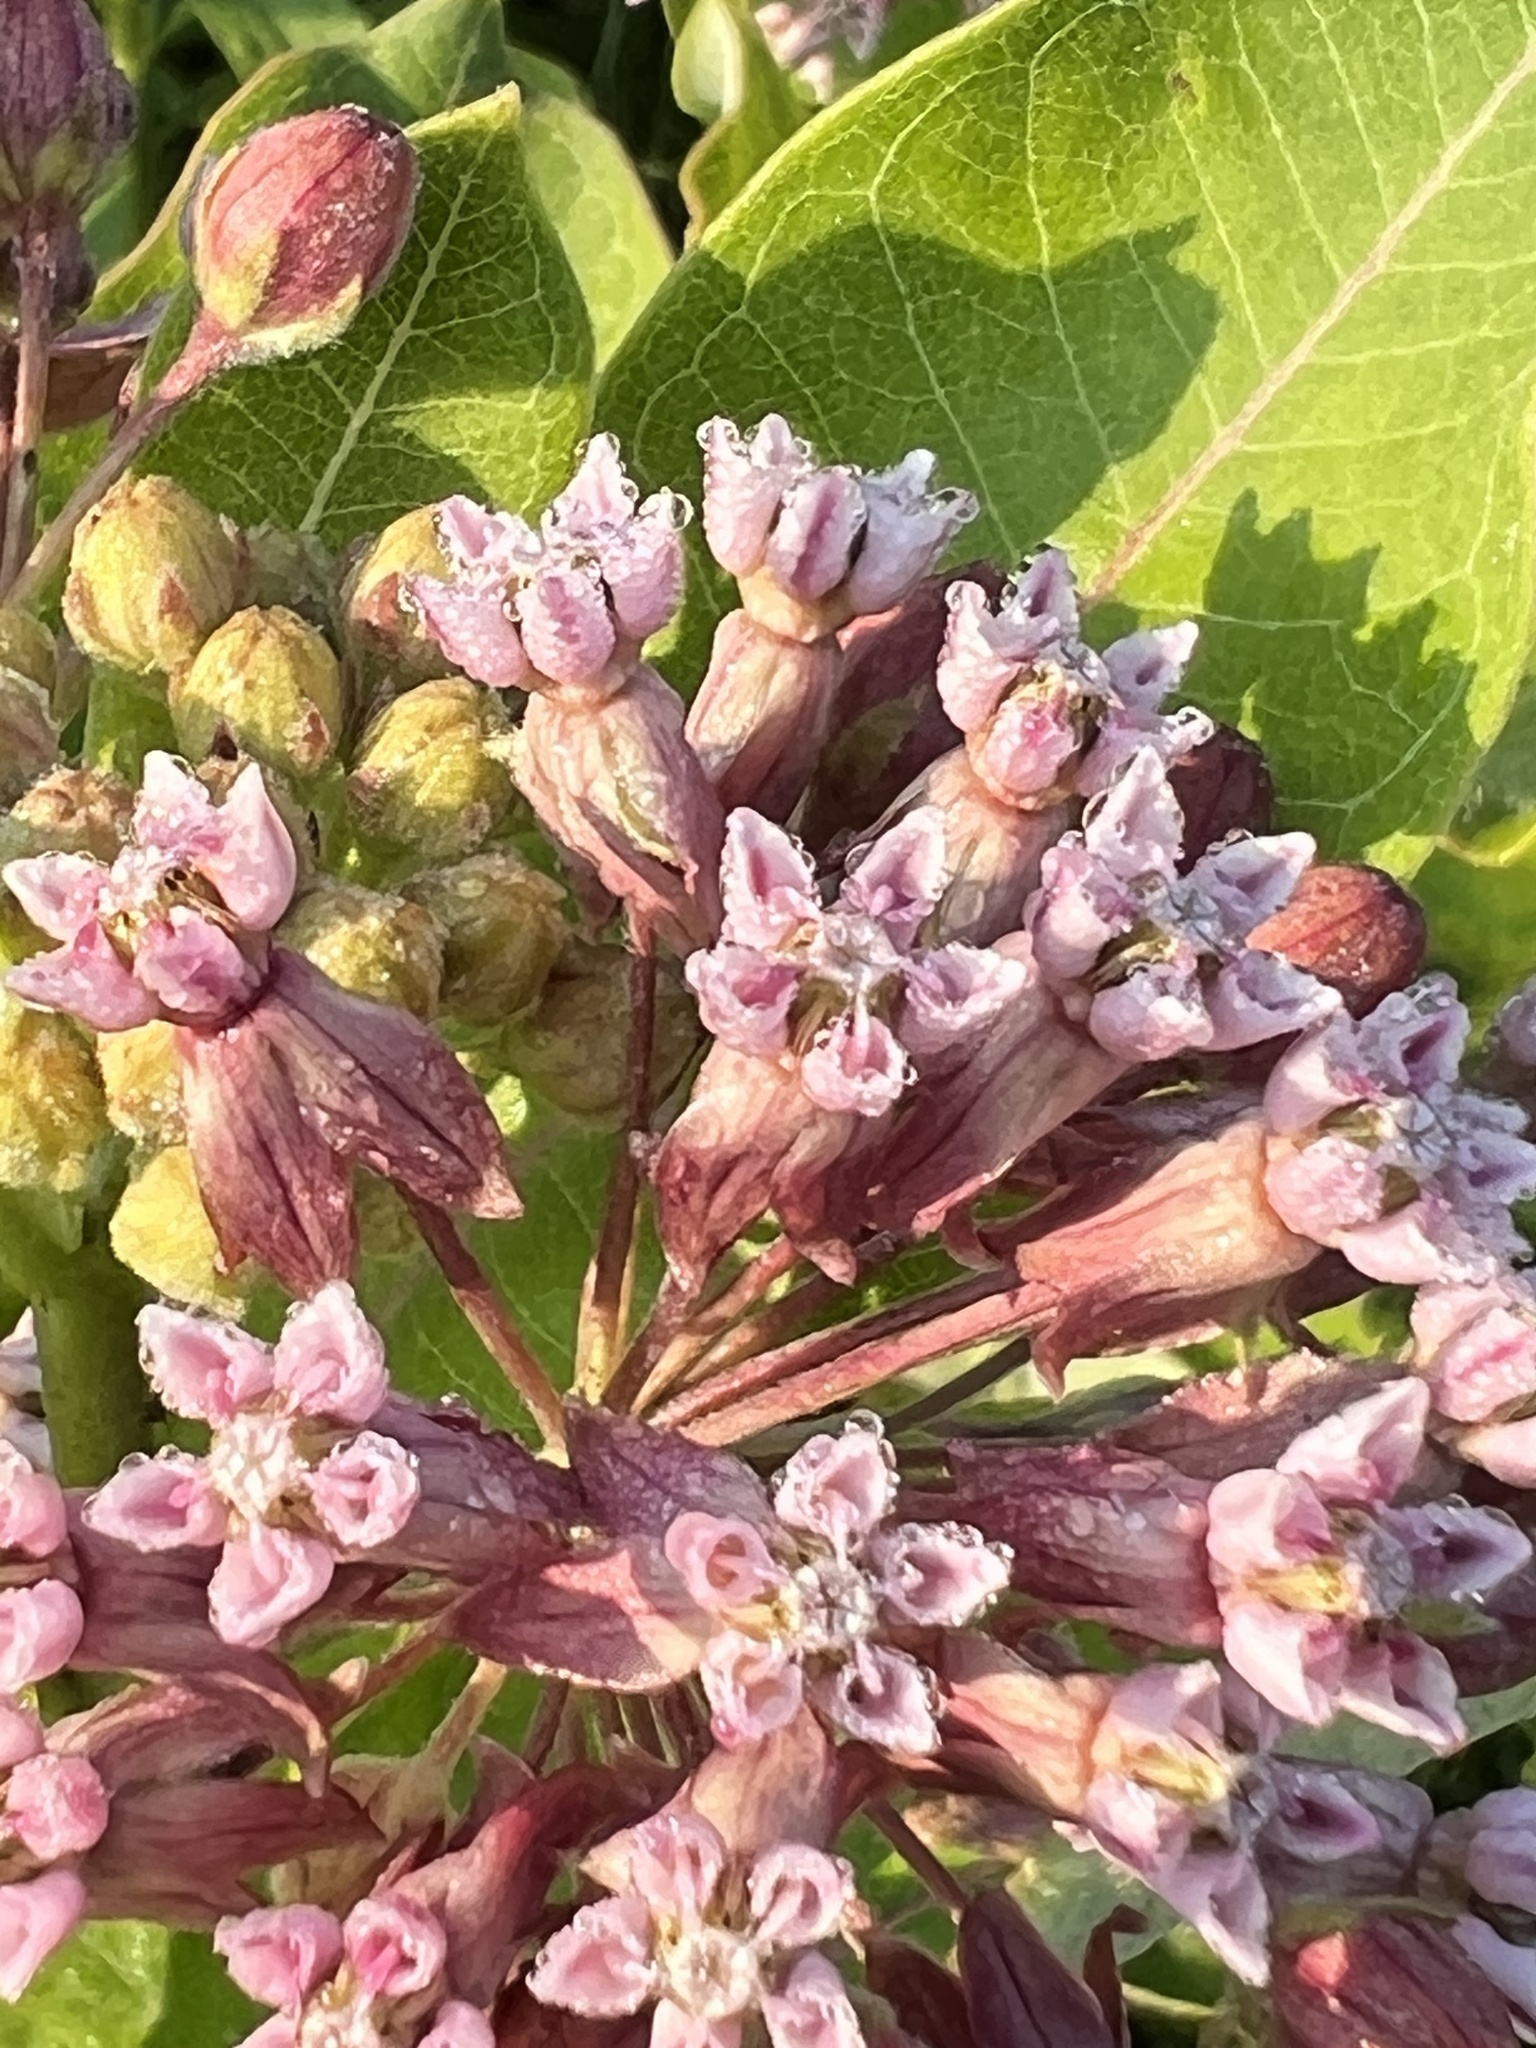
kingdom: Plantae
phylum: Tracheophyta
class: Magnoliopsida
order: Gentianales
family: Apocynaceae
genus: Asclepias
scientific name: Asclepias syriaca
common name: Common milkweed
